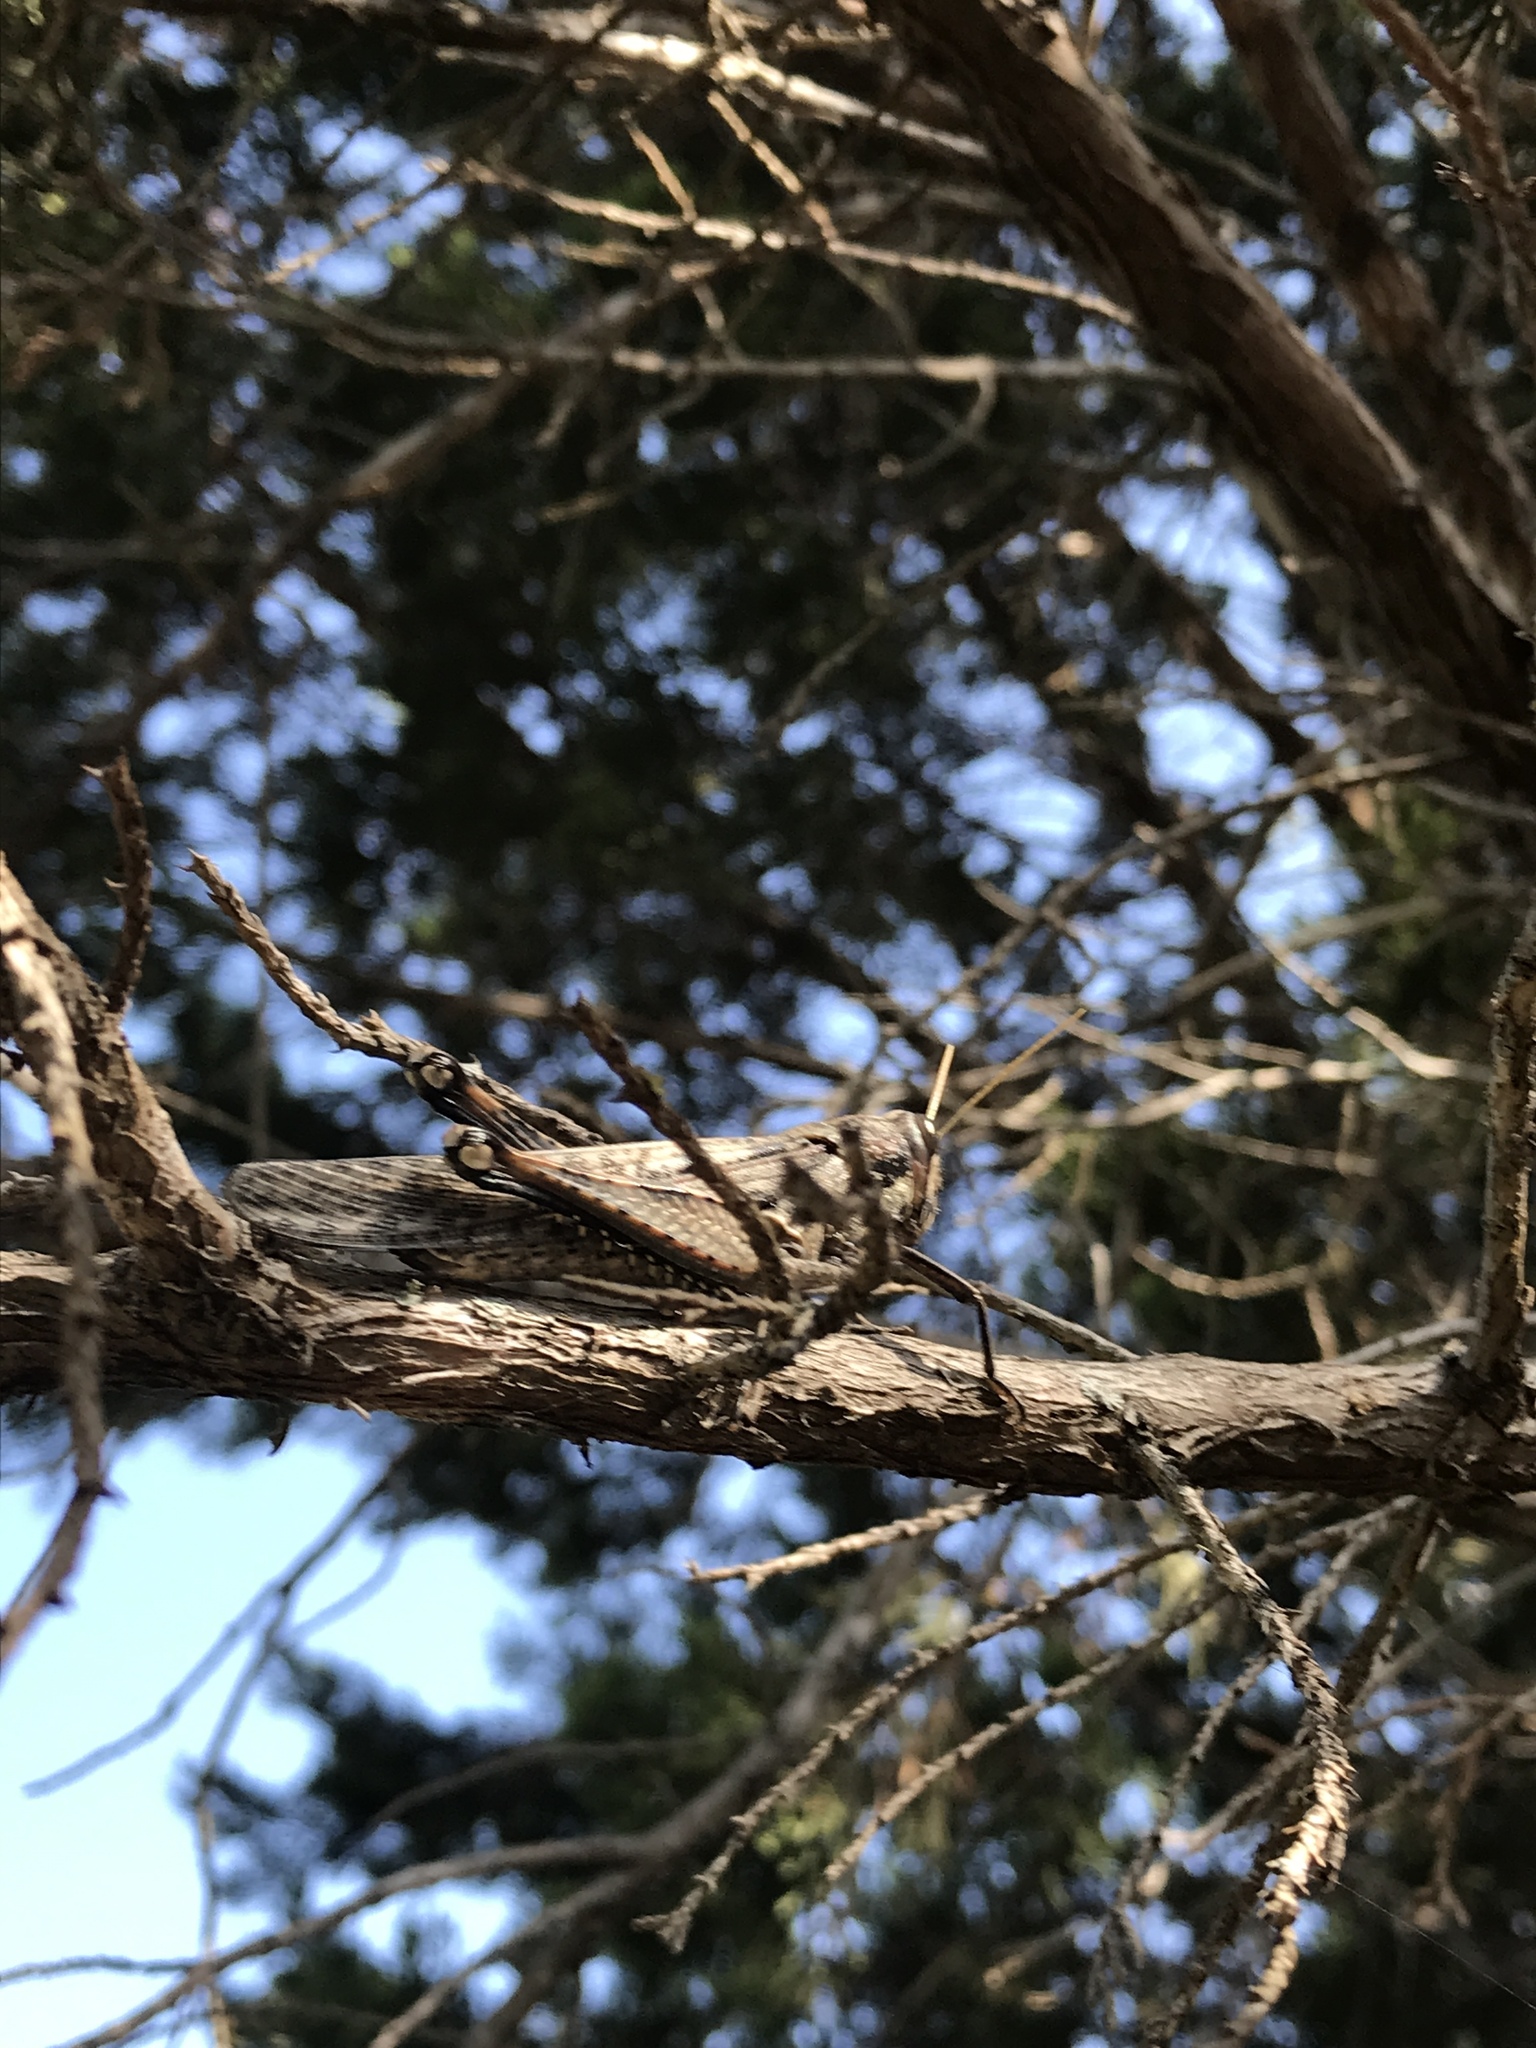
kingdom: Animalia
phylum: Arthropoda
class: Insecta
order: Orthoptera
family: Acrididae
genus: Schistocerca
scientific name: Schistocerca nitens
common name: Vagrant grasshopper
